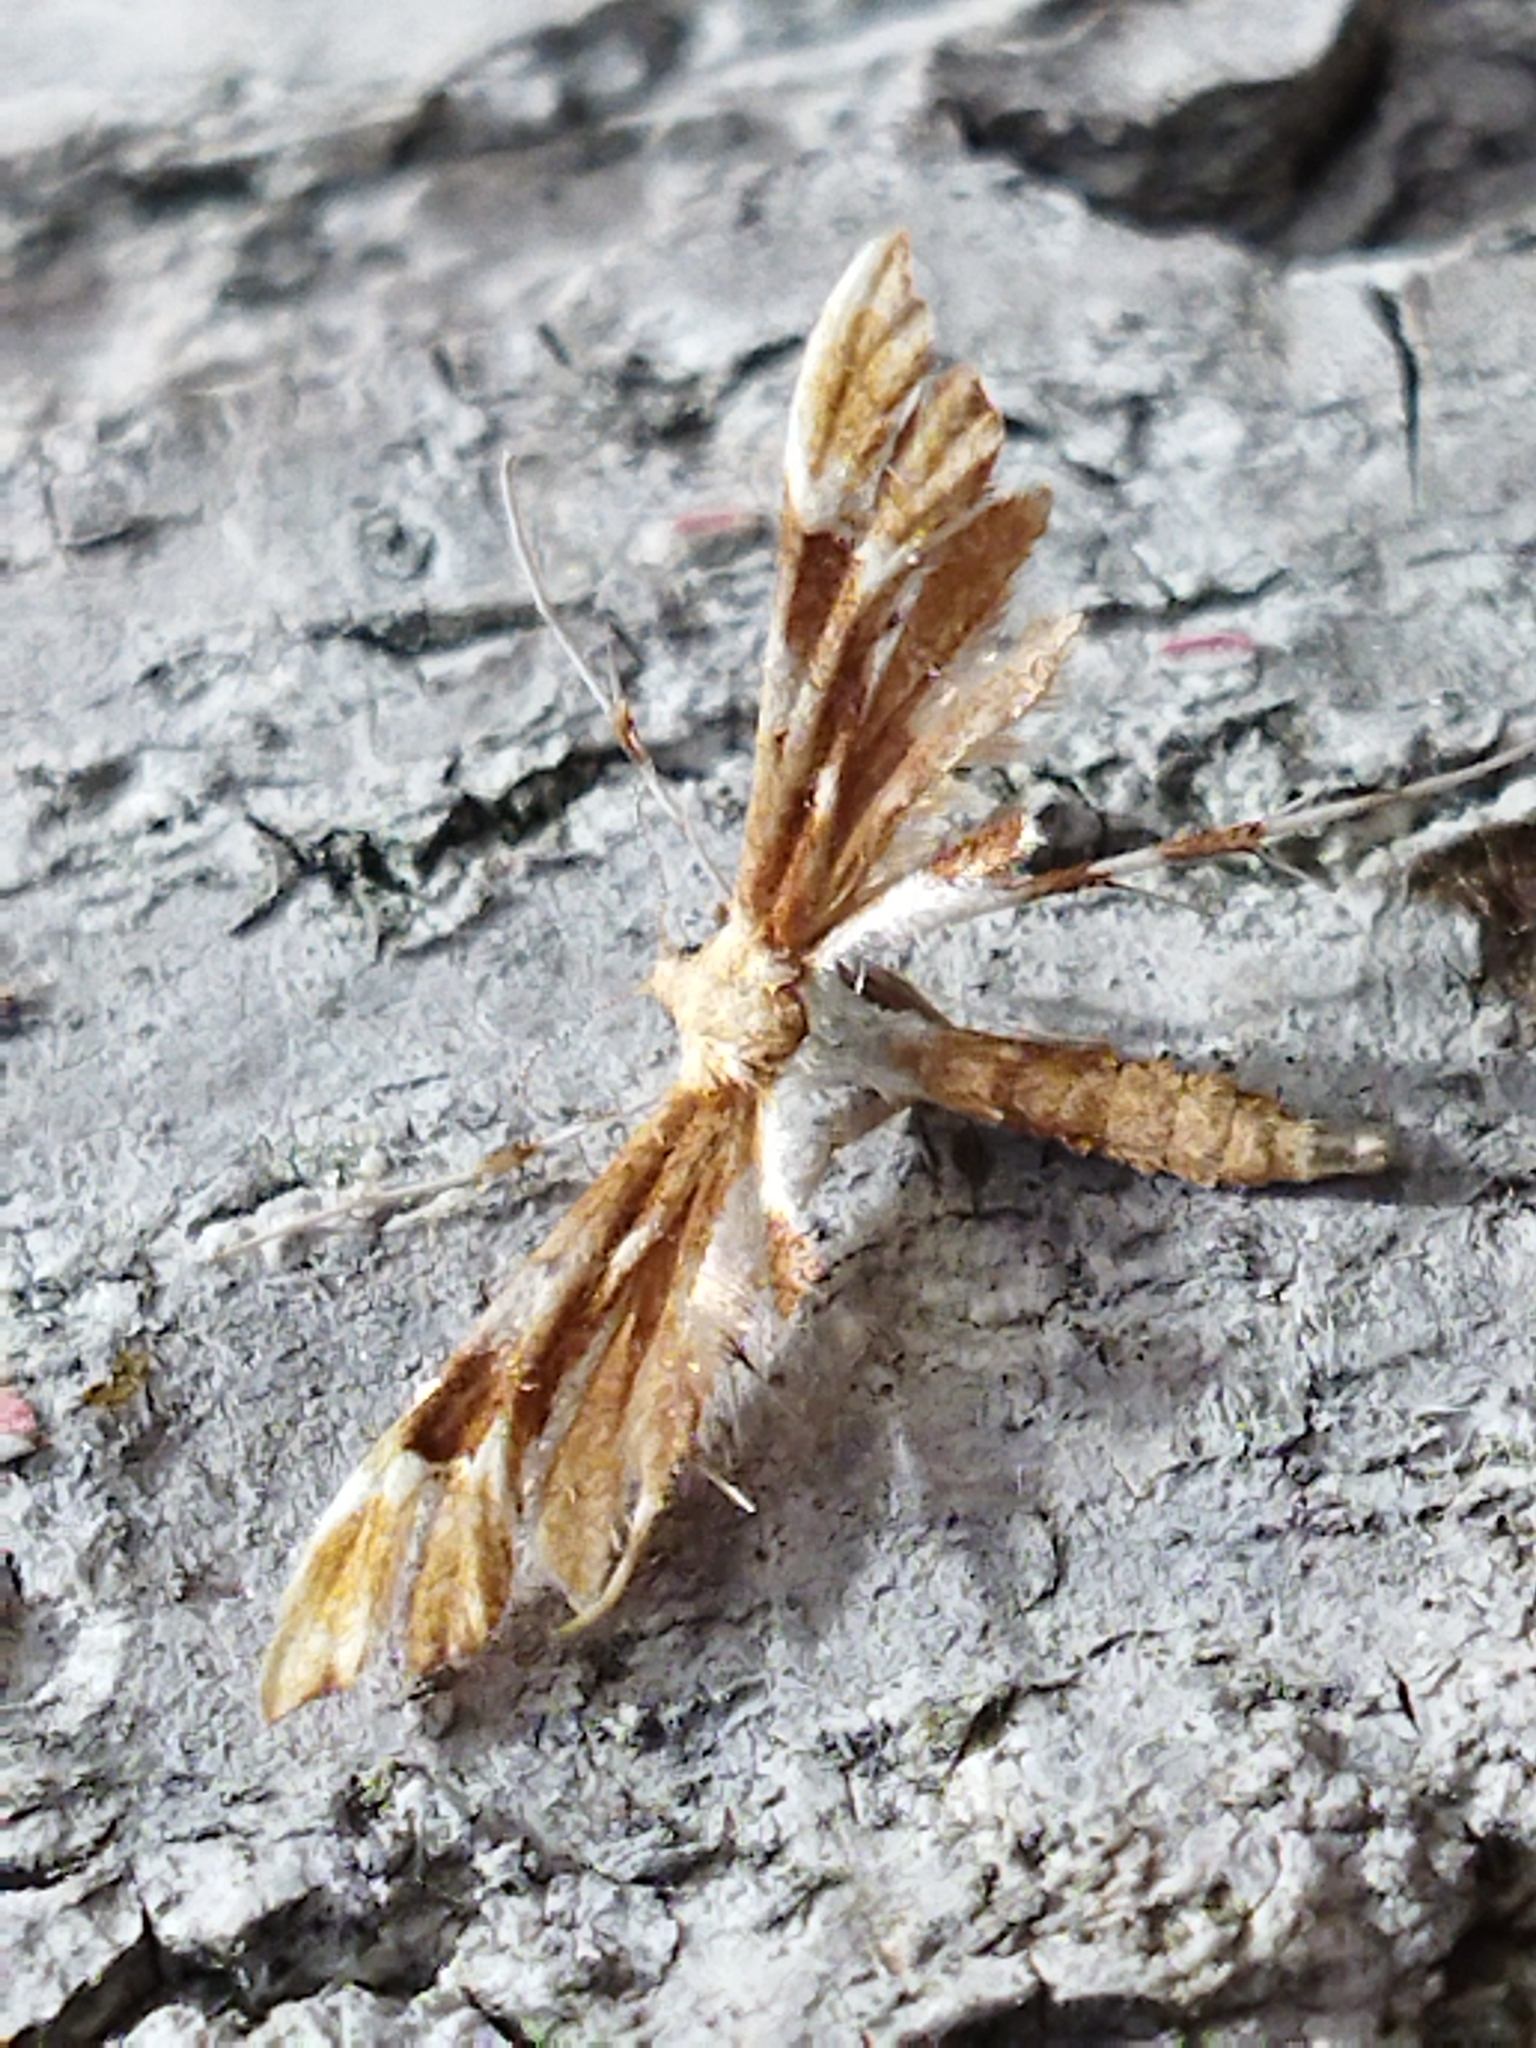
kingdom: Animalia
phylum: Arthropoda
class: Insecta
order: Lepidoptera
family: Pterophoridae
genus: Cnaemidophorus
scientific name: Cnaemidophorus rhododactyla
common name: Rose plume
